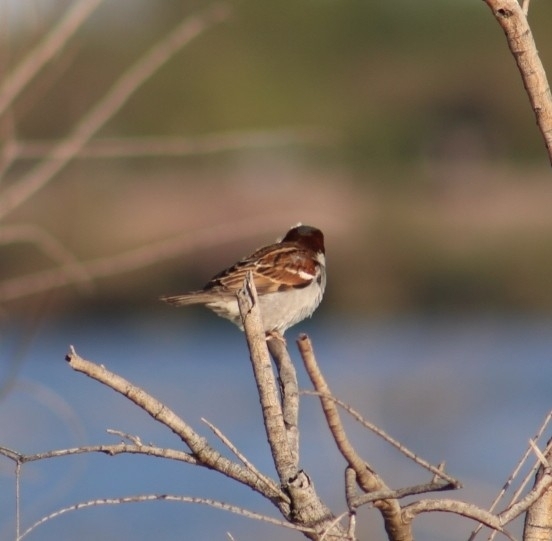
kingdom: Animalia
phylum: Chordata
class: Aves
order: Passeriformes
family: Passeridae
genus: Passer
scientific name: Passer domesticus
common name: House sparrow
